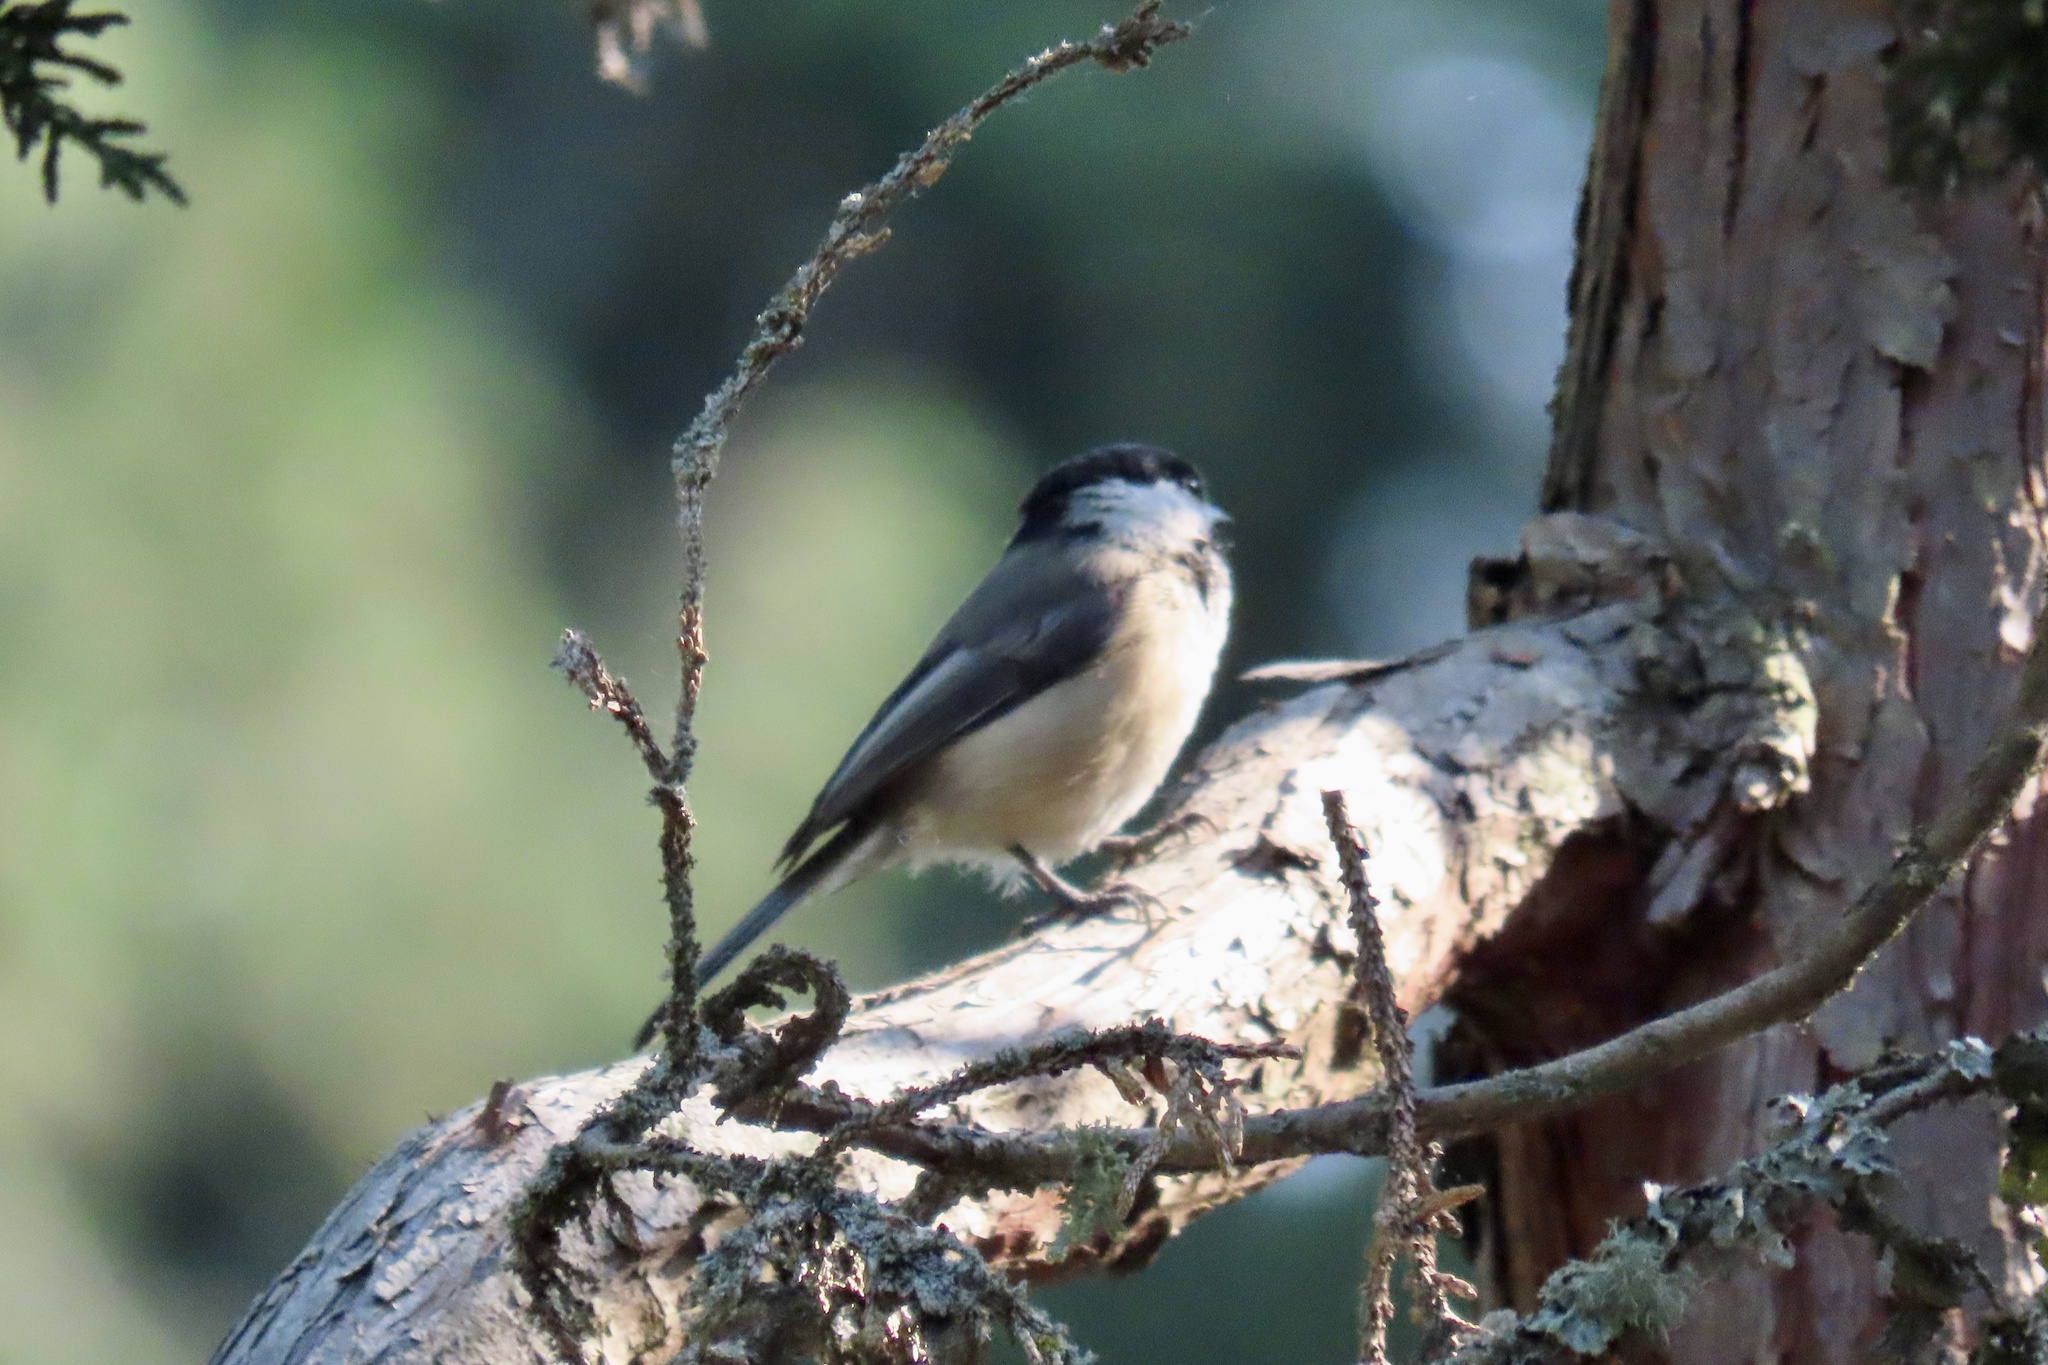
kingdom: Animalia
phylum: Chordata
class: Aves
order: Passeriformes
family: Paridae
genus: Poecile
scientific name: Poecile atricapillus
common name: Black-capped chickadee
